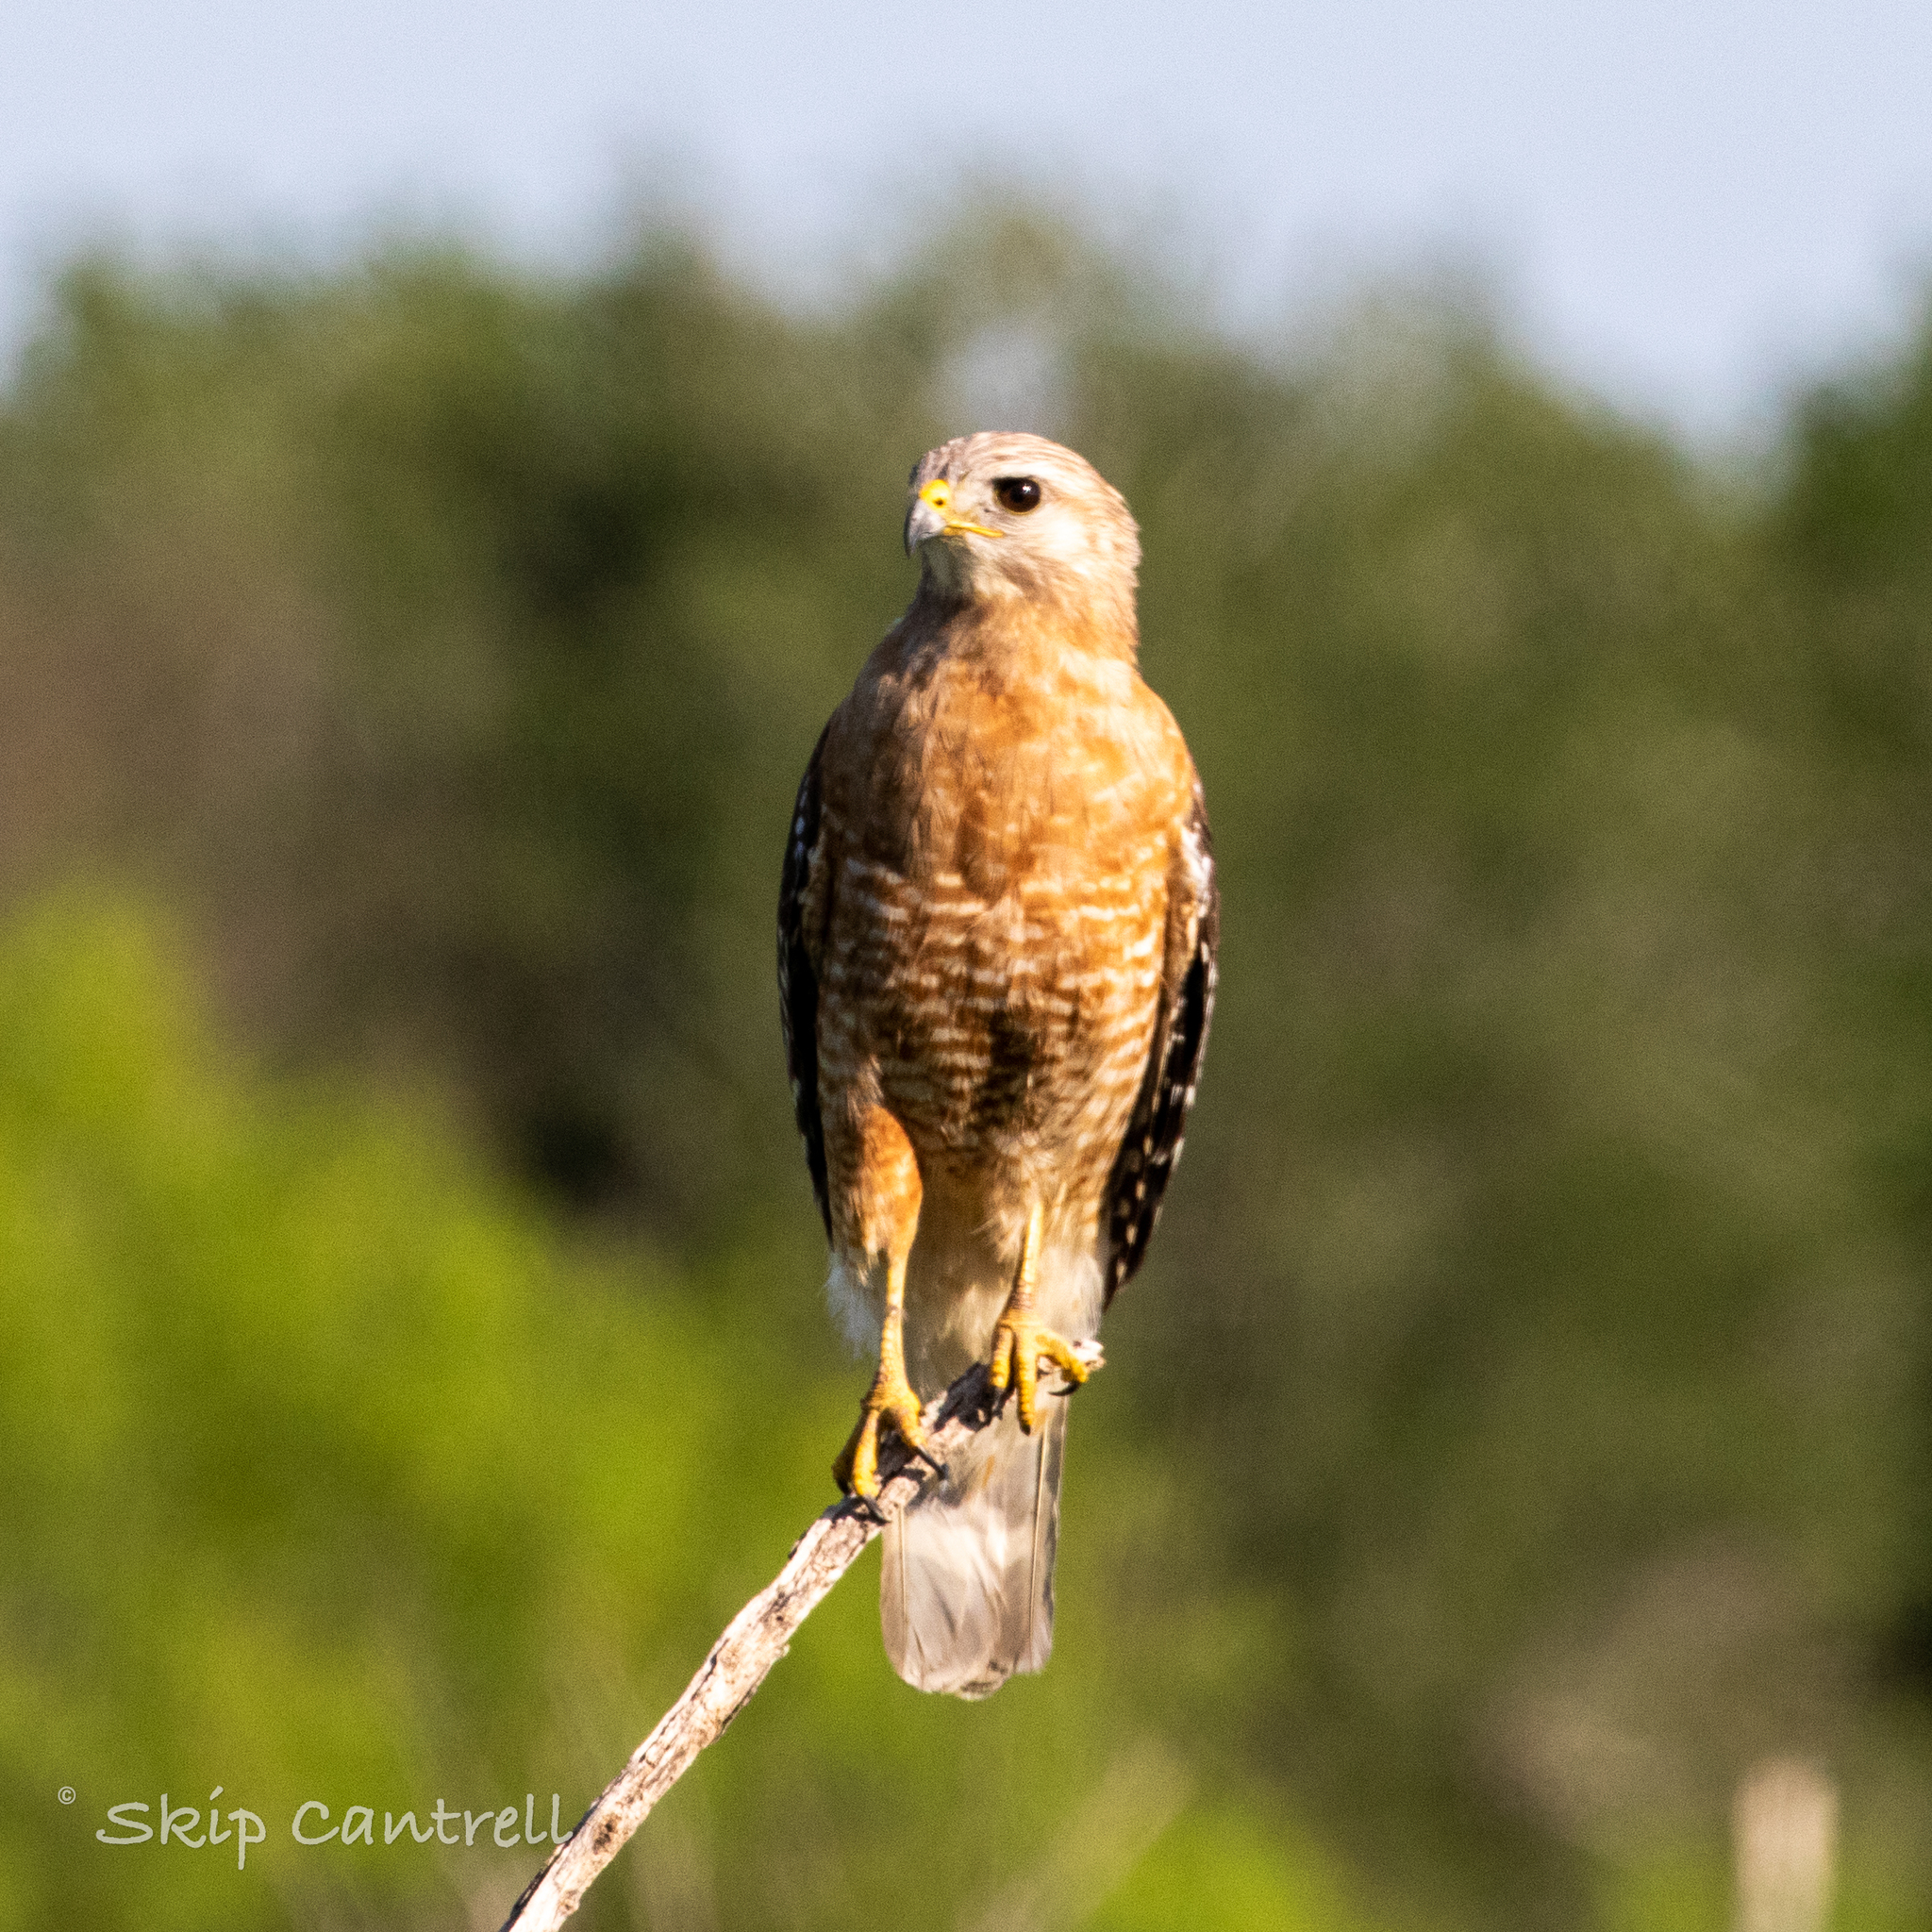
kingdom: Animalia
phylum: Chordata
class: Aves
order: Accipitriformes
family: Accipitridae
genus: Buteo
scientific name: Buteo lineatus
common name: Red-shouldered hawk
